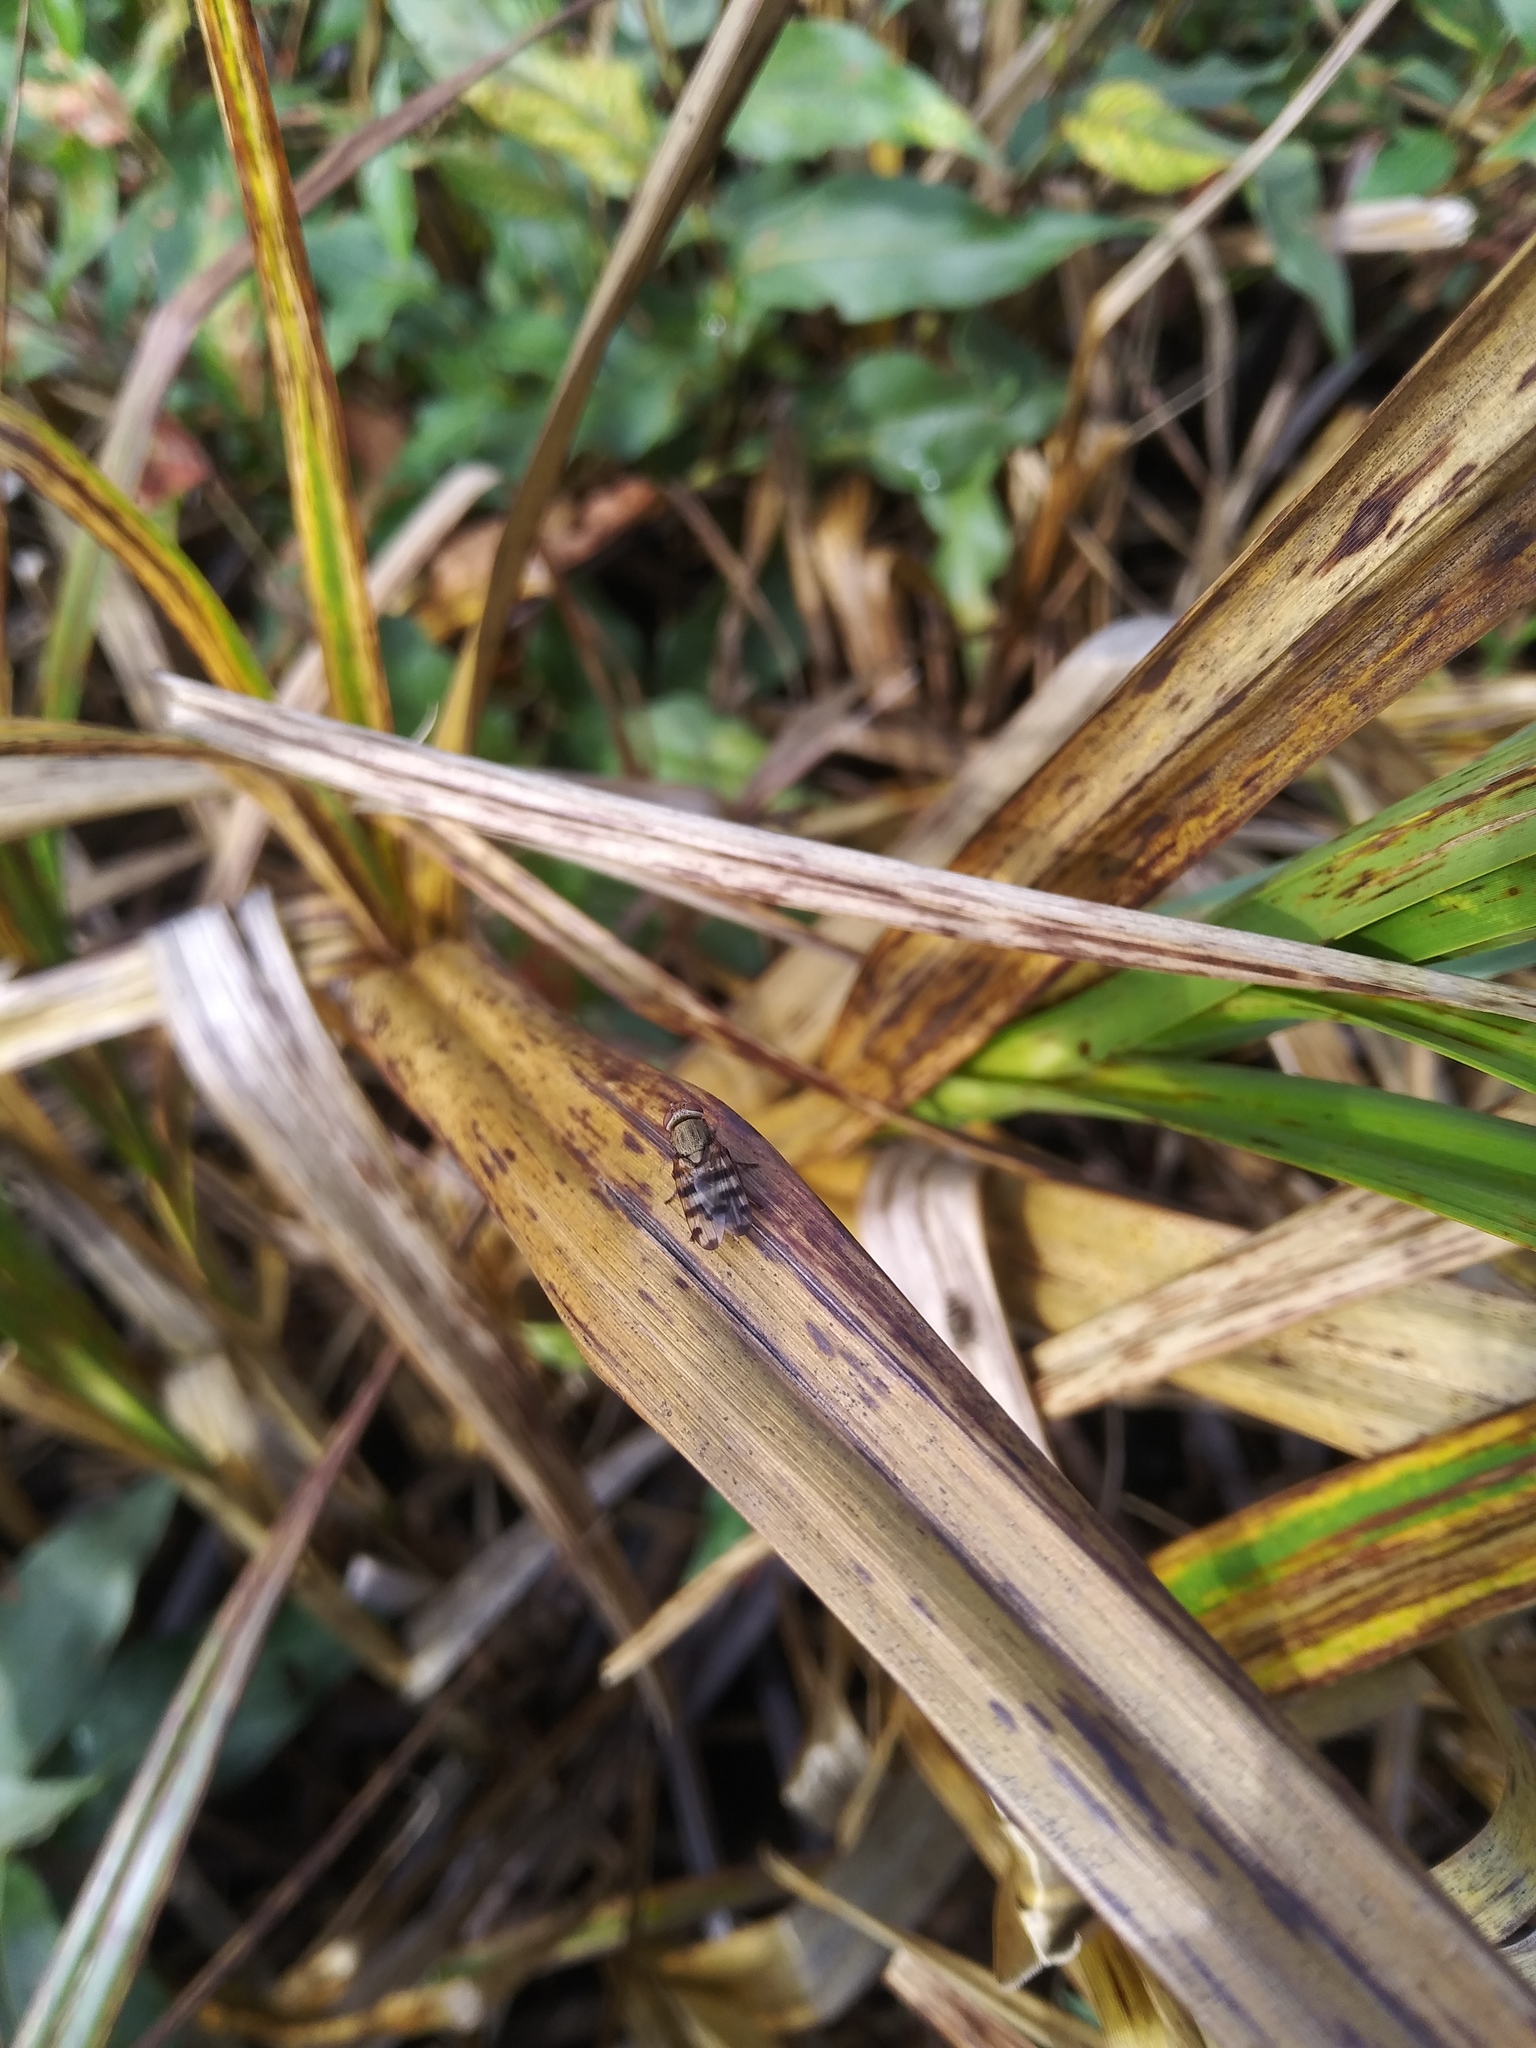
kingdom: Animalia
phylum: Arthropoda
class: Insecta
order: Diptera
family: Ulidiidae
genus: Ceroxys
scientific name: Ceroxys latiusculus
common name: Picture-winged fly
